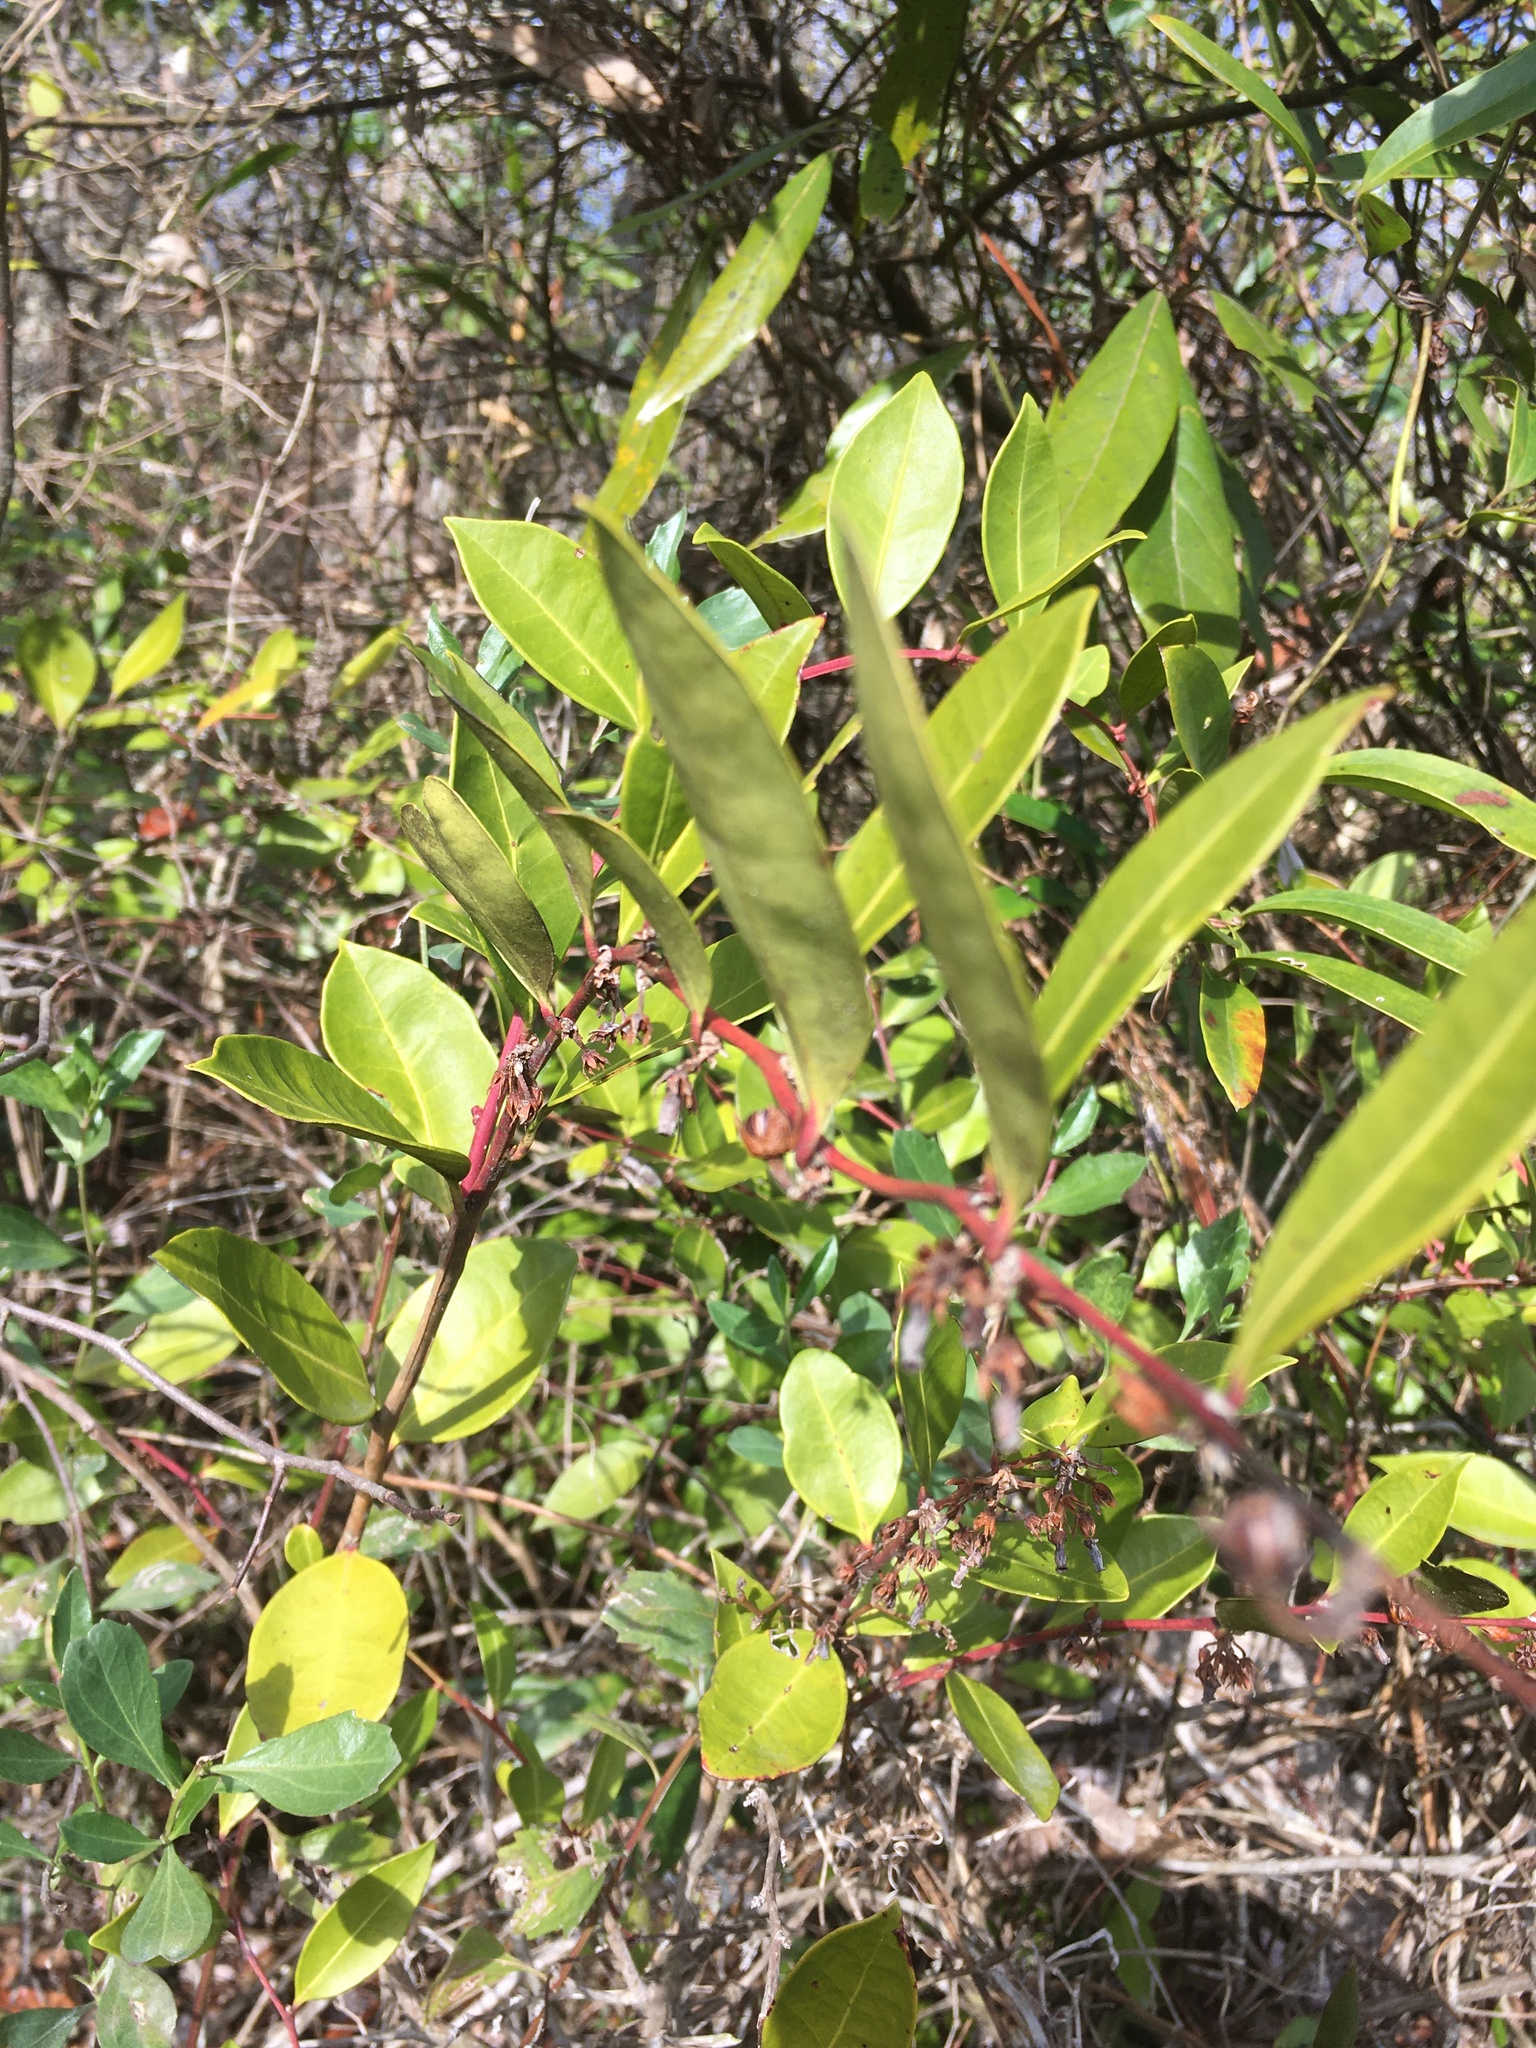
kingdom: Plantae
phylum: Tracheophyta
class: Magnoliopsida
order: Ericales
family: Ericaceae
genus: Lyonia
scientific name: Lyonia lucida
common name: Fetterbush
